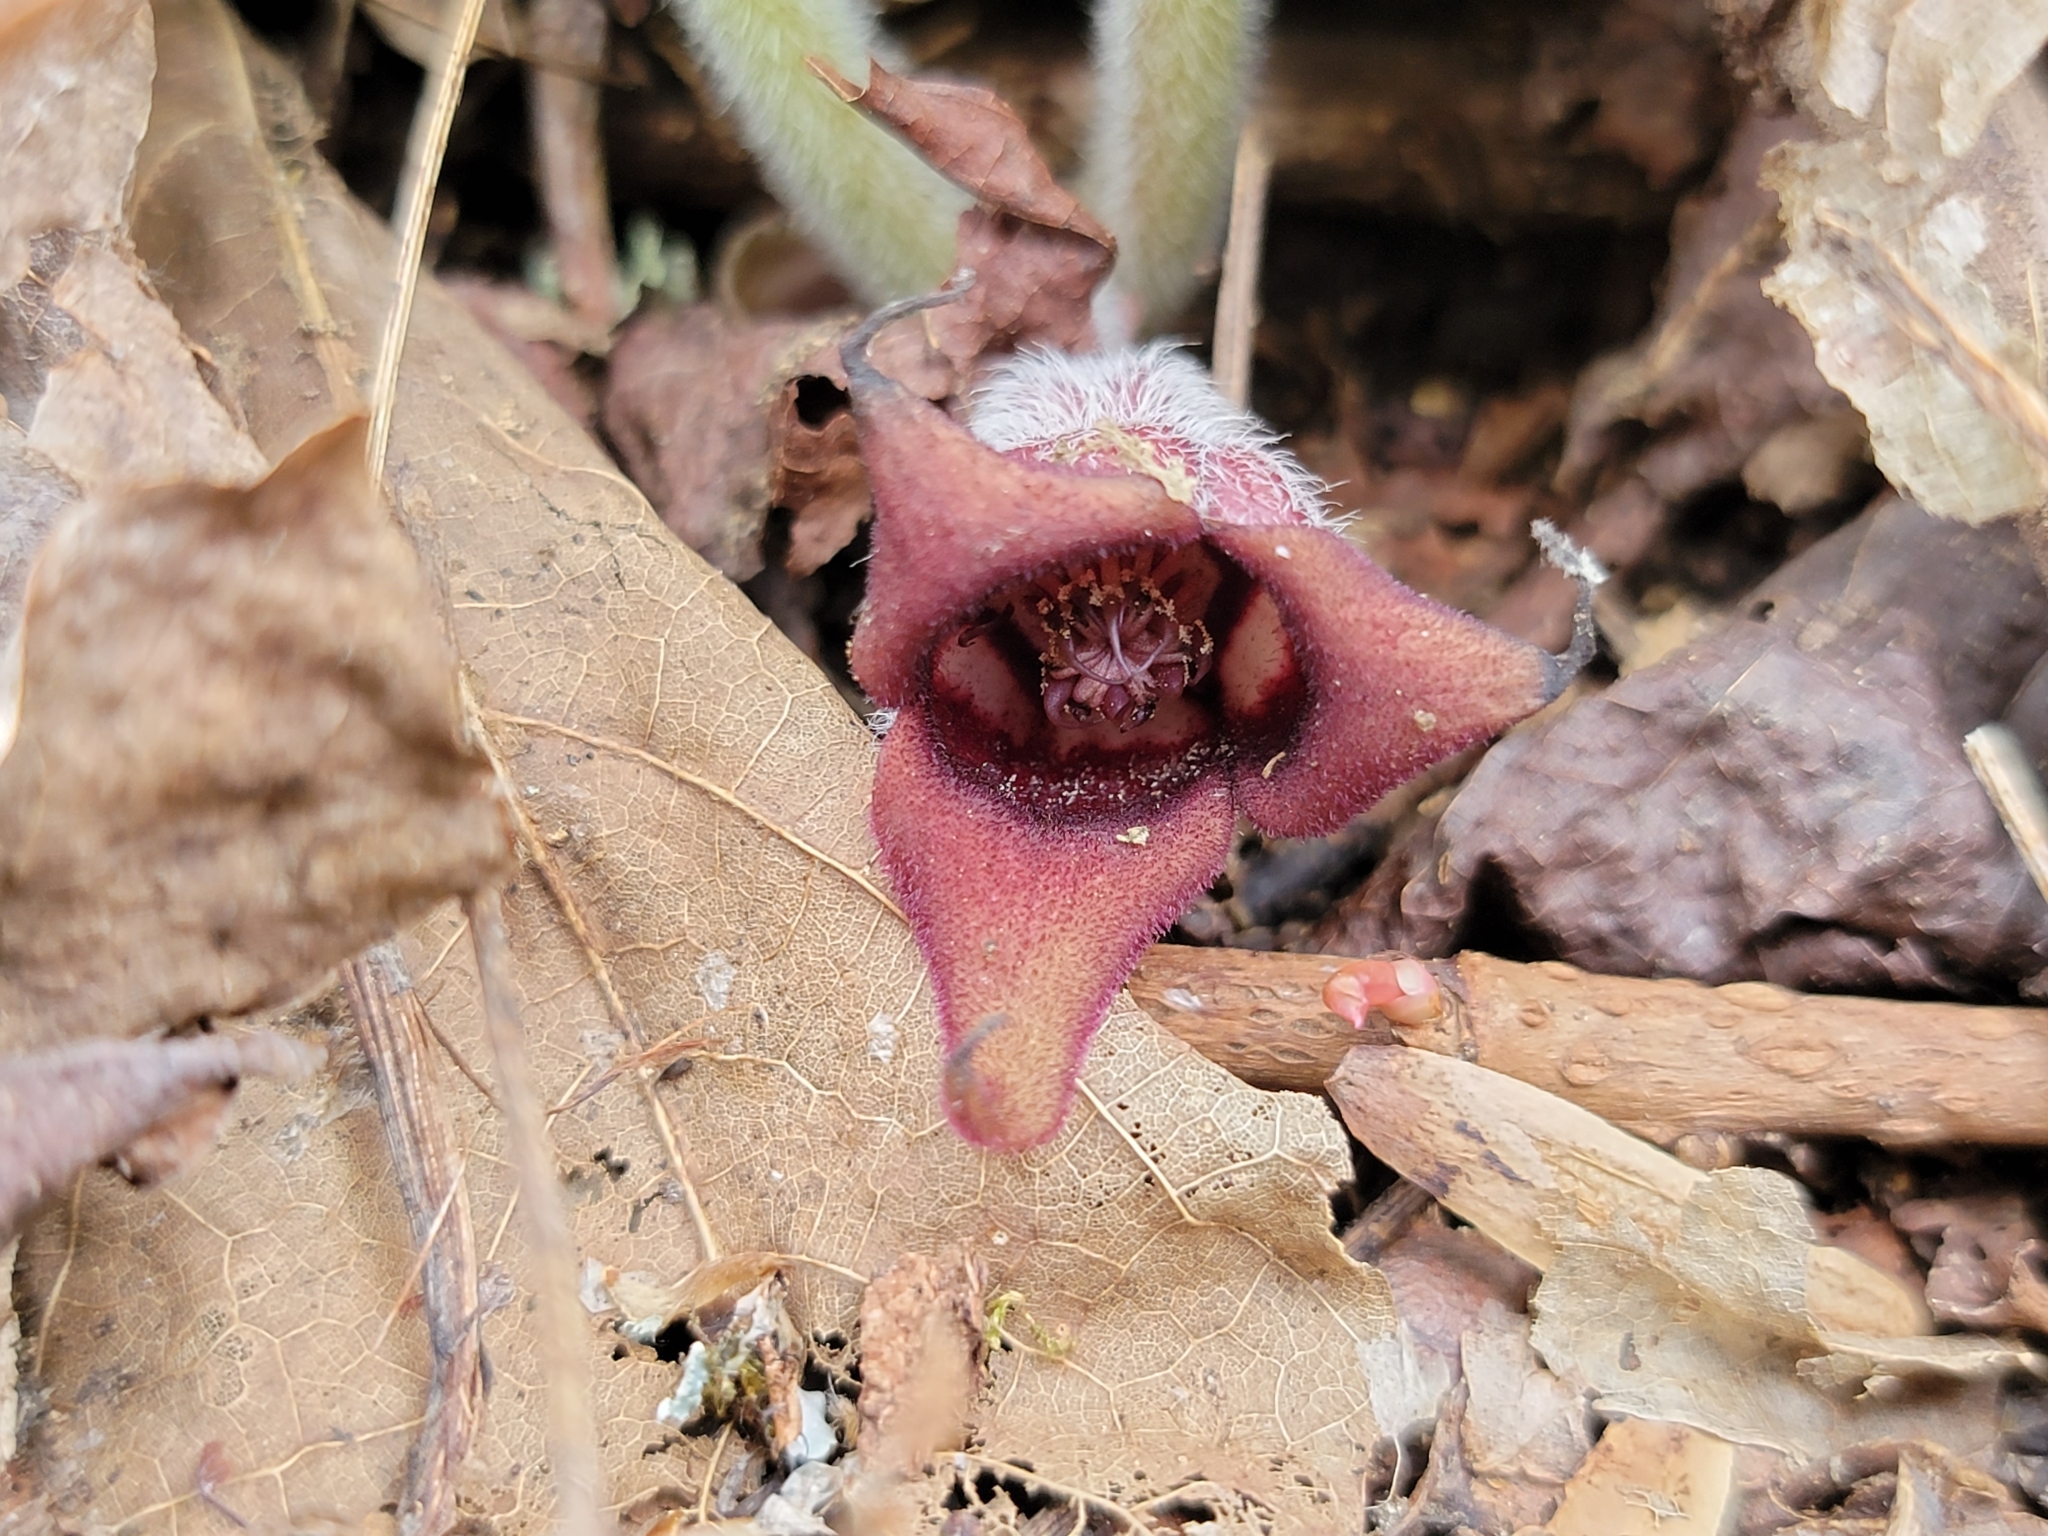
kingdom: Plantae
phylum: Tracheophyta
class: Magnoliopsida
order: Piperales
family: Aristolochiaceae
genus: Asarum
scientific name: Asarum canadense
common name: Wild ginger
